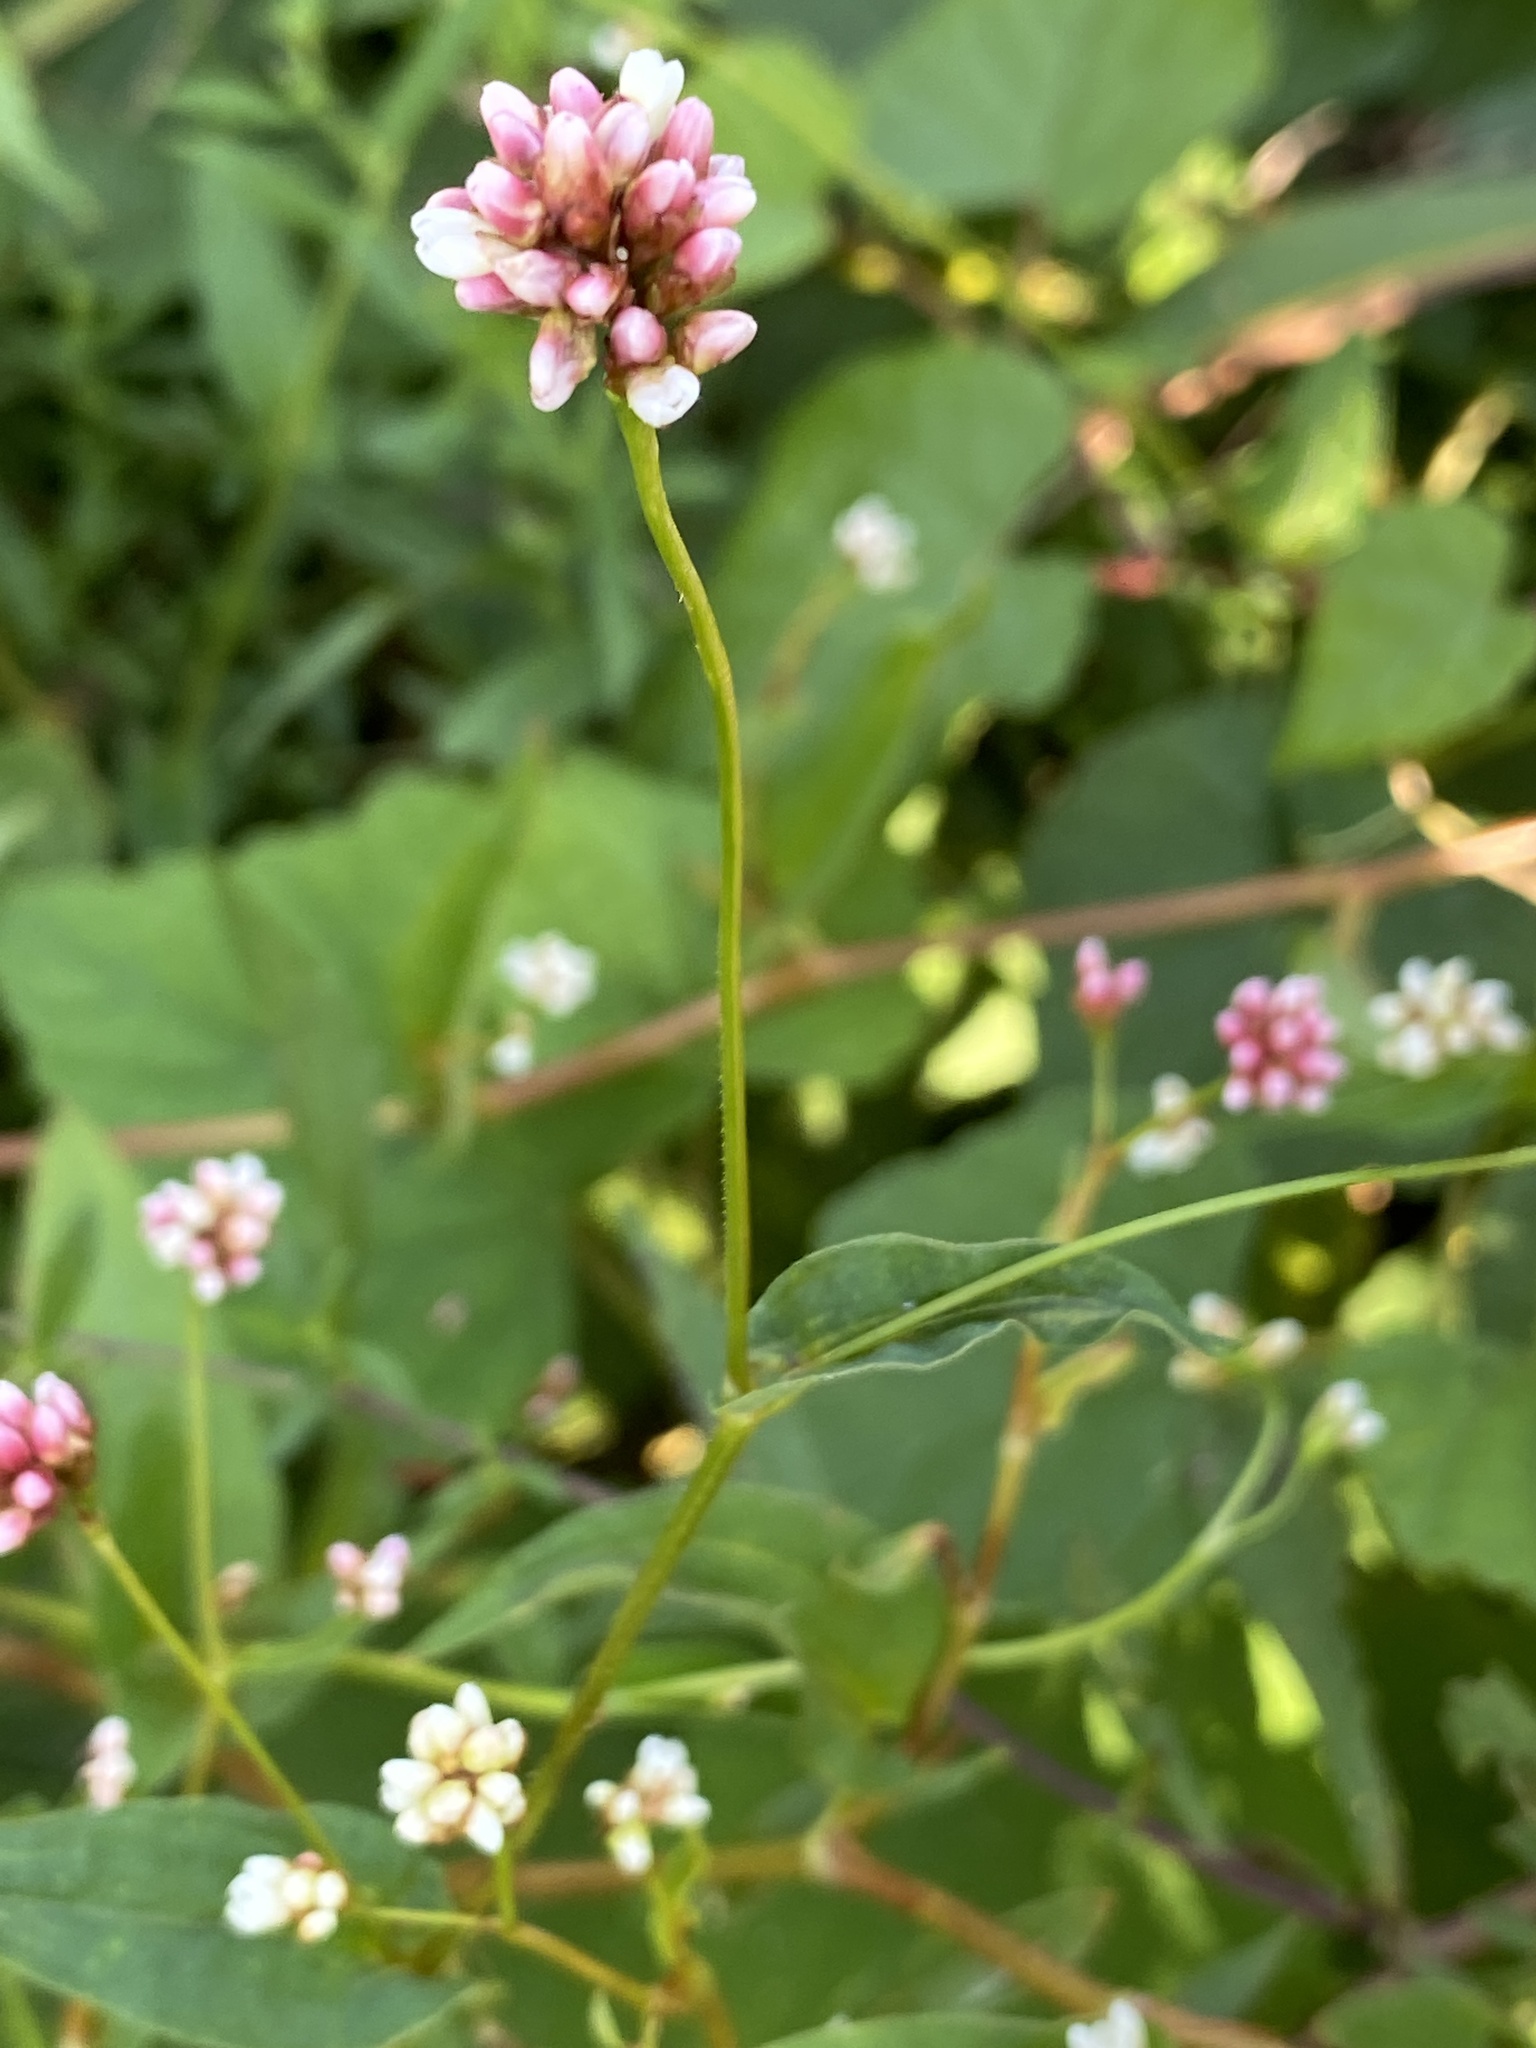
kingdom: Plantae
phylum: Tracheophyta
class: Magnoliopsida
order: Caryophyllales
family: Polygonaceae
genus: Persicaria
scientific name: Persicaria sagittata
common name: American tearthumb
